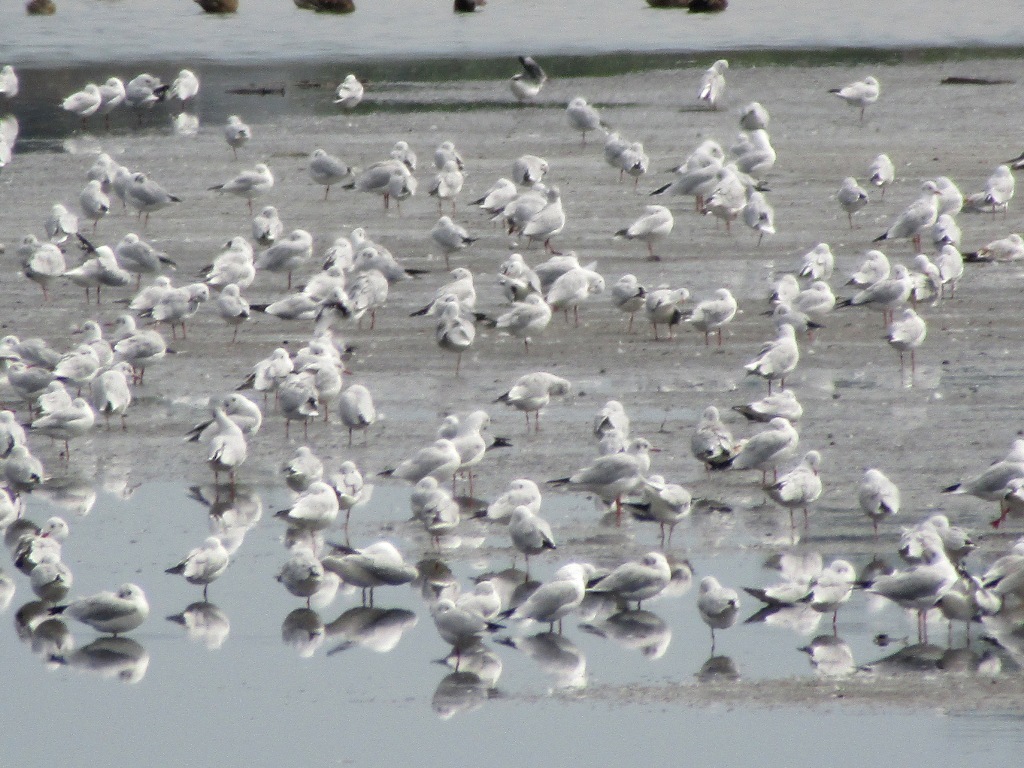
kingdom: Animalia
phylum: Chordata
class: Aves
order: Charadriiformes
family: Laridae
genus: Chroicocephalus
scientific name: Chroicocephalus ridibundus
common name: Black-headed gull
